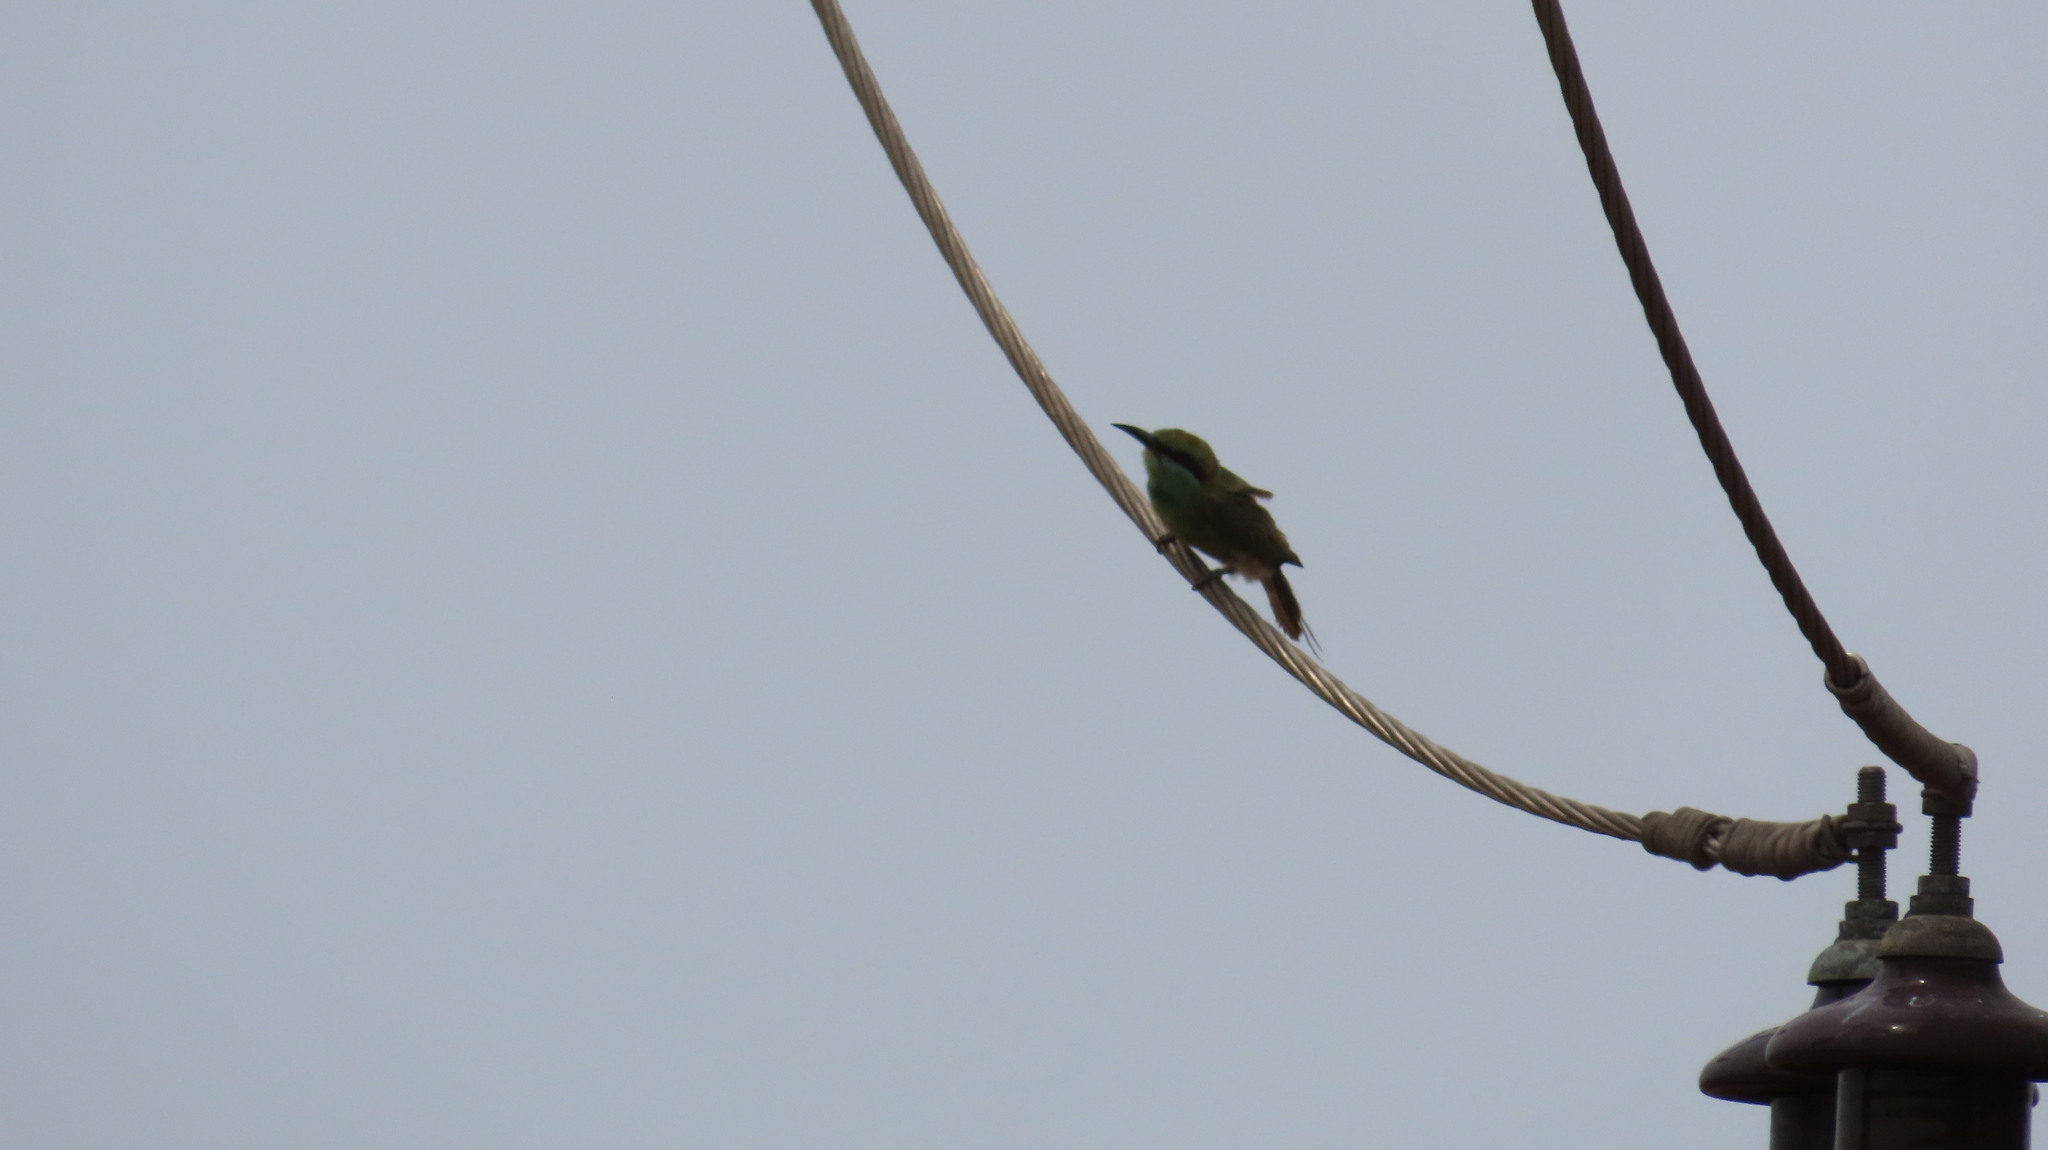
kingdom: Animalia
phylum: Chordata
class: Aves
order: Coraciiformes
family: Meropidae
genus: Merops
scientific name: Merops orientalis
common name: Green bee-eater
